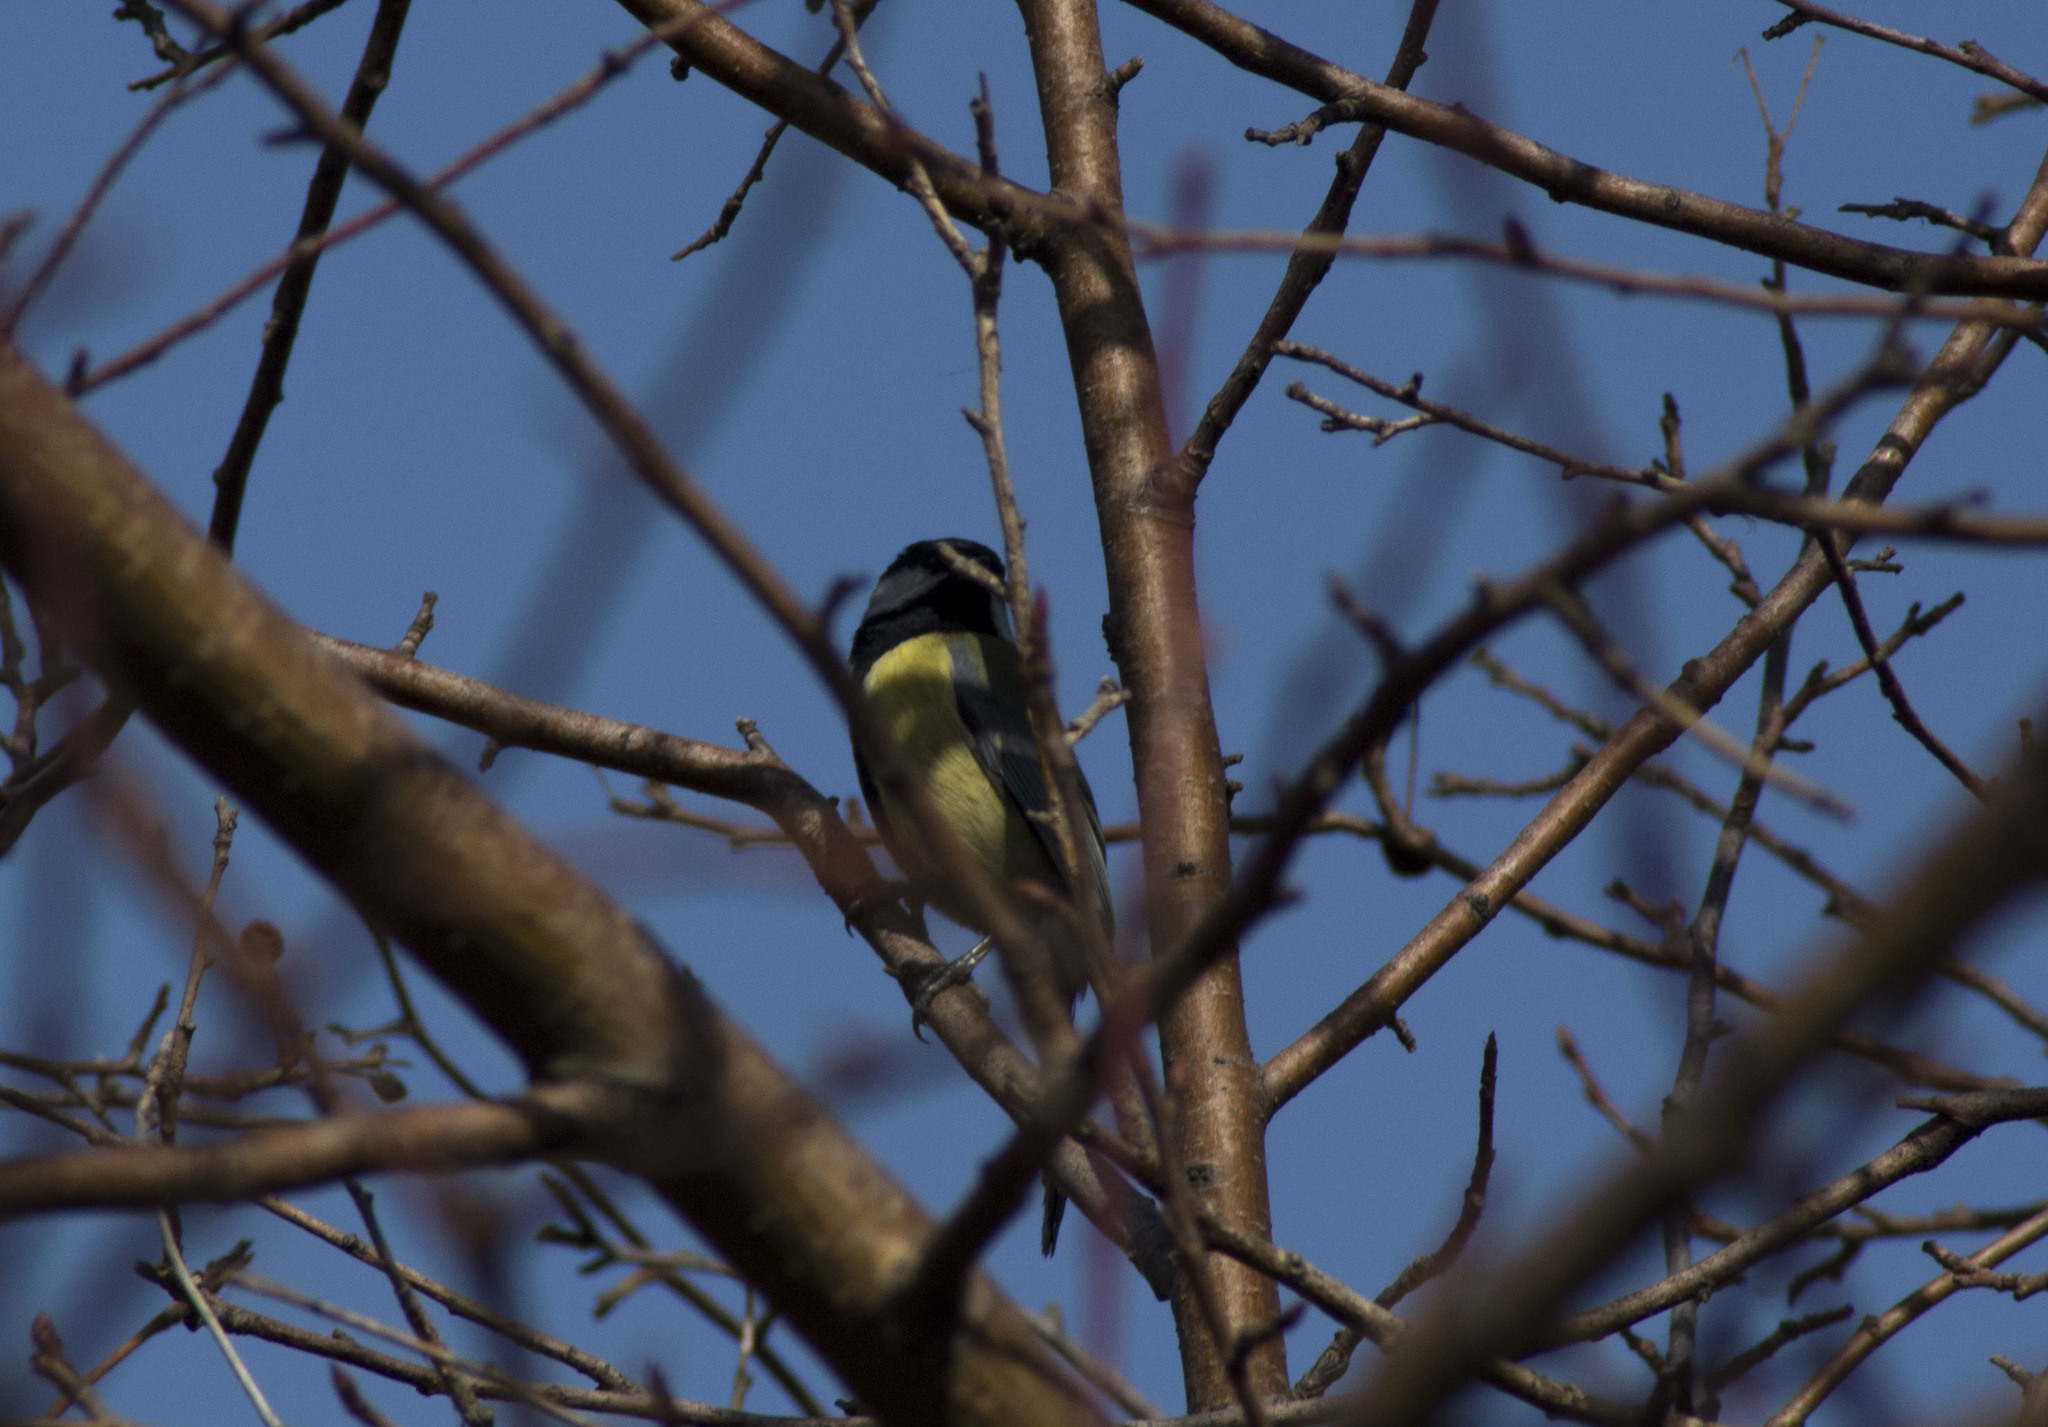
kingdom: Animalia
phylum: Chordata
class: Aves
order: Passeriformes
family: Paridae
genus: Parus
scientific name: Parus major
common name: Great tit
